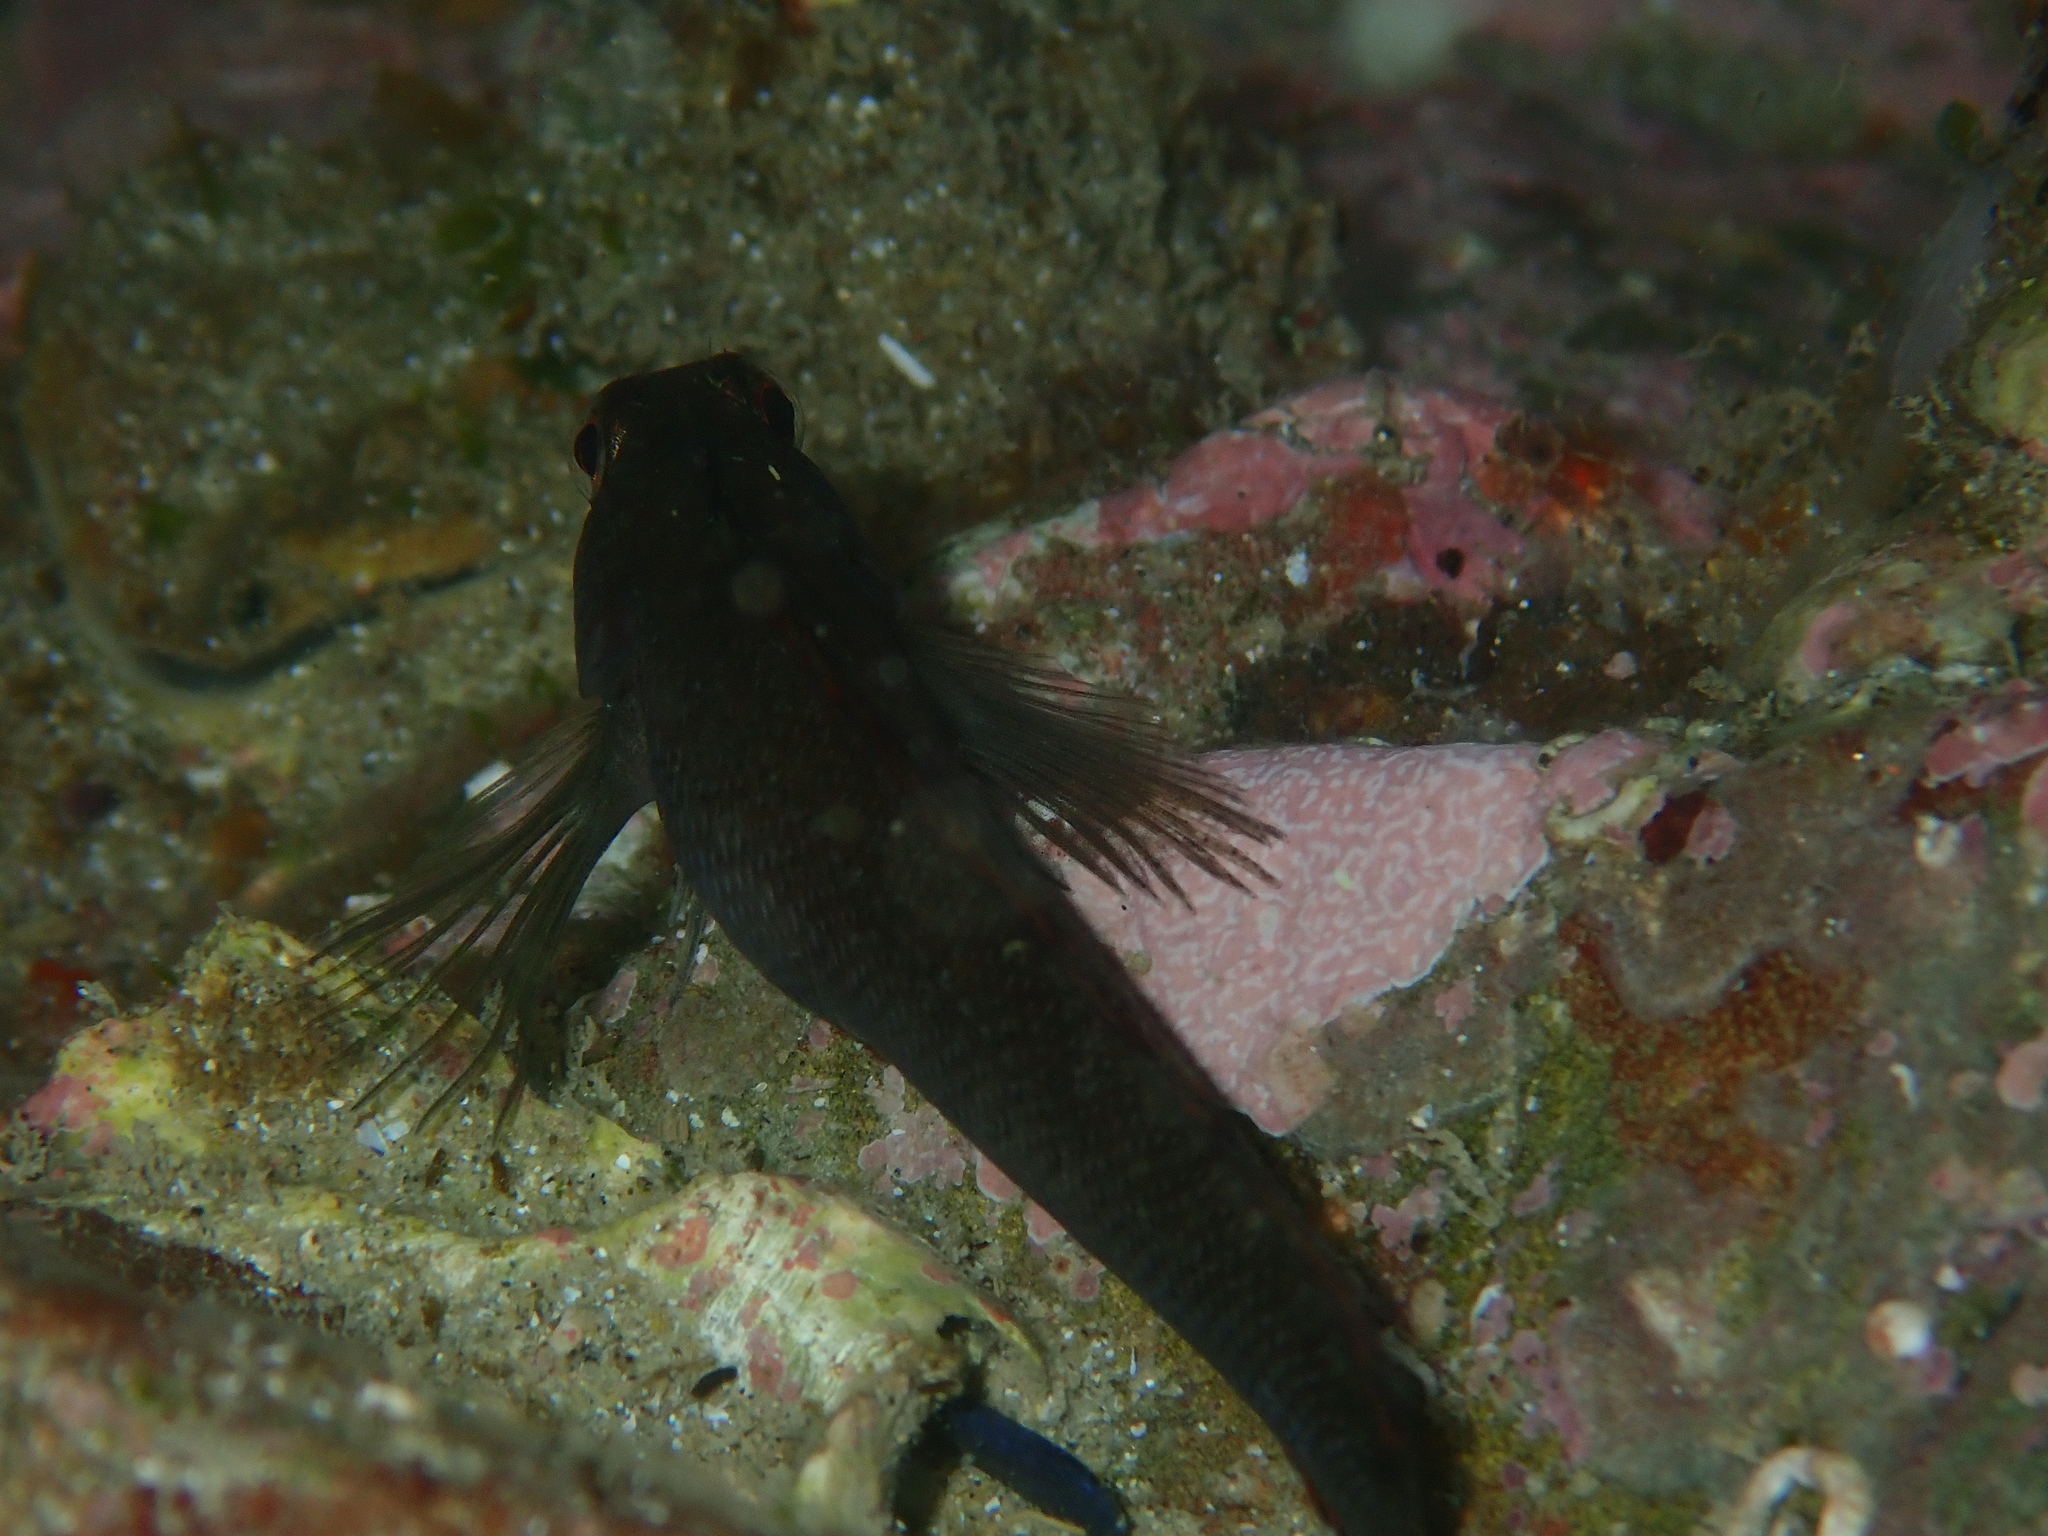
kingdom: Animalia
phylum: Chordata
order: Perciformes
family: Tripterygiidae
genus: Forsterygion
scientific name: Forsterygion lapillum
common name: Common triplefin
